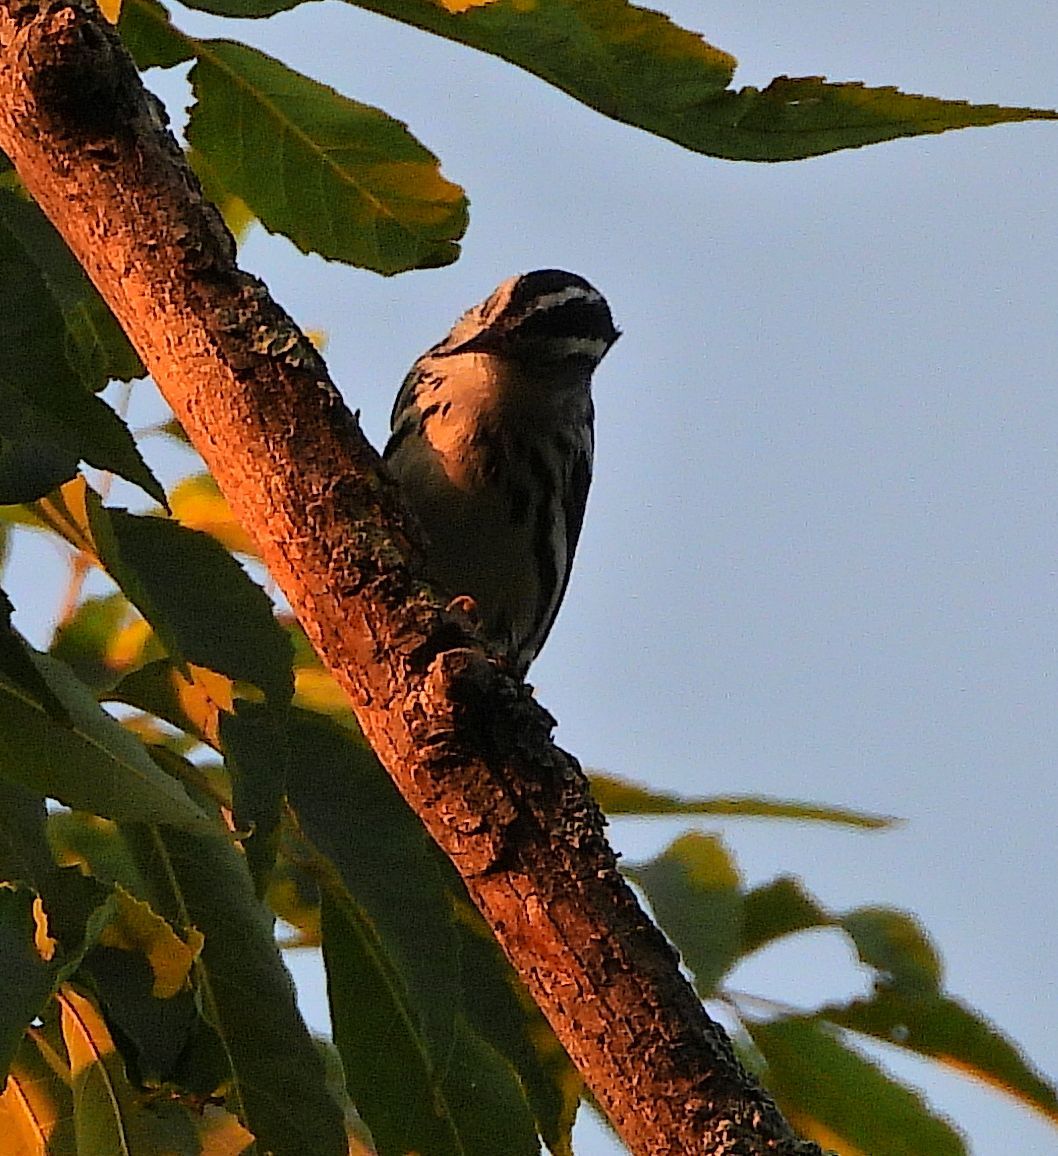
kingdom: Animalia
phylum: Chordata
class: Aves
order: Passeriformes
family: Parulidae
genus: Mniotilta
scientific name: Mniotilta varia
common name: Black-and-white warbler
